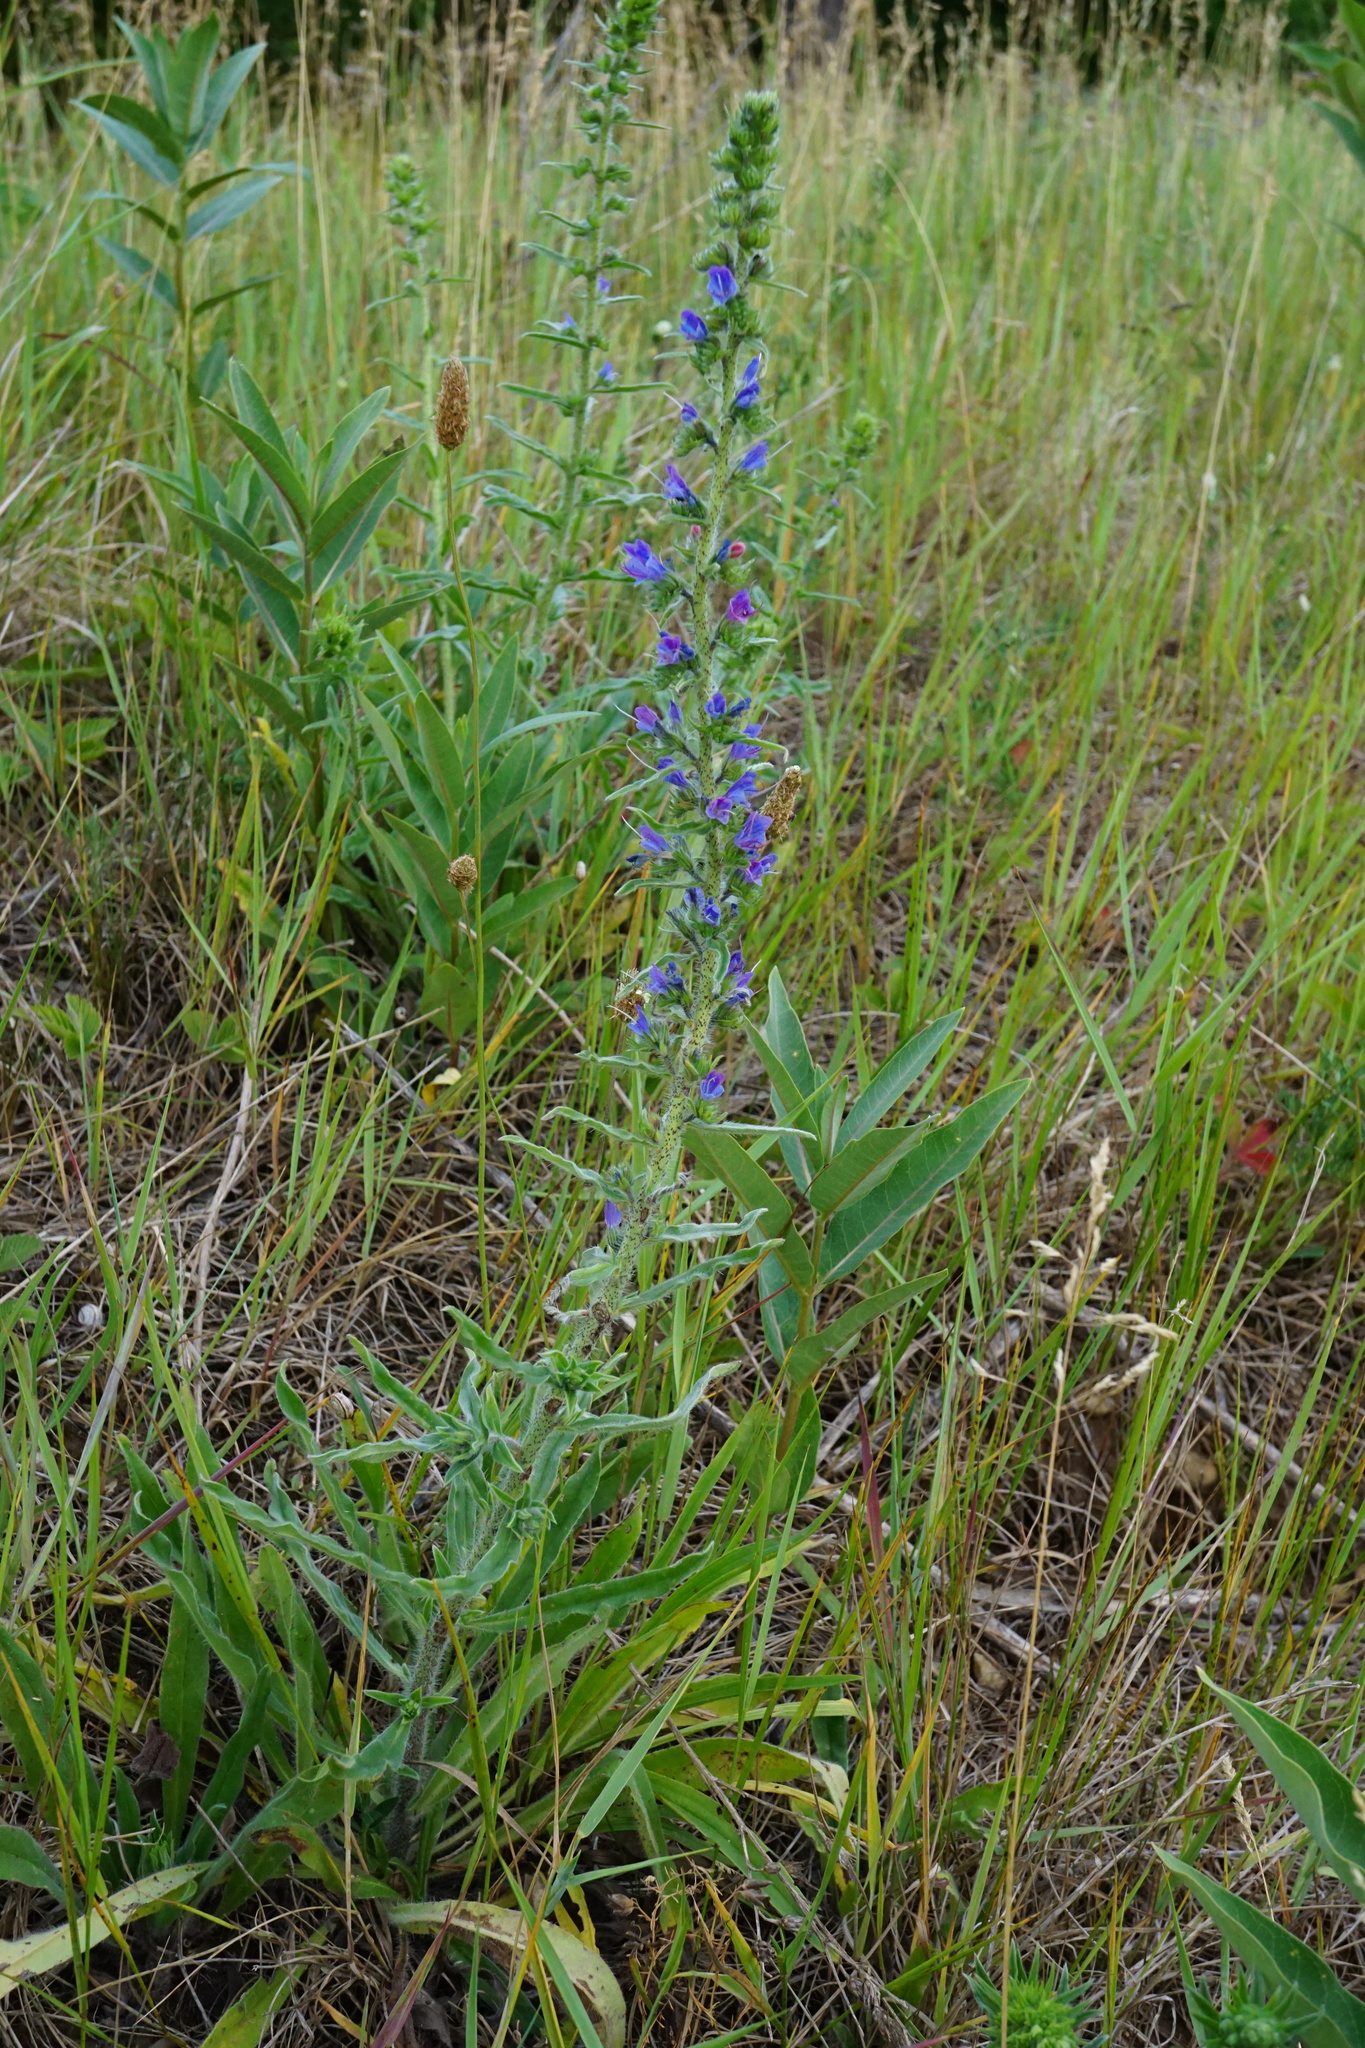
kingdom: Plantae
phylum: Tracheophyta
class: Magnoliopsida
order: Boraginales
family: Boraginaceae
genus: Echium
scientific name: Echium vulgare
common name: Common viper's bugloss
